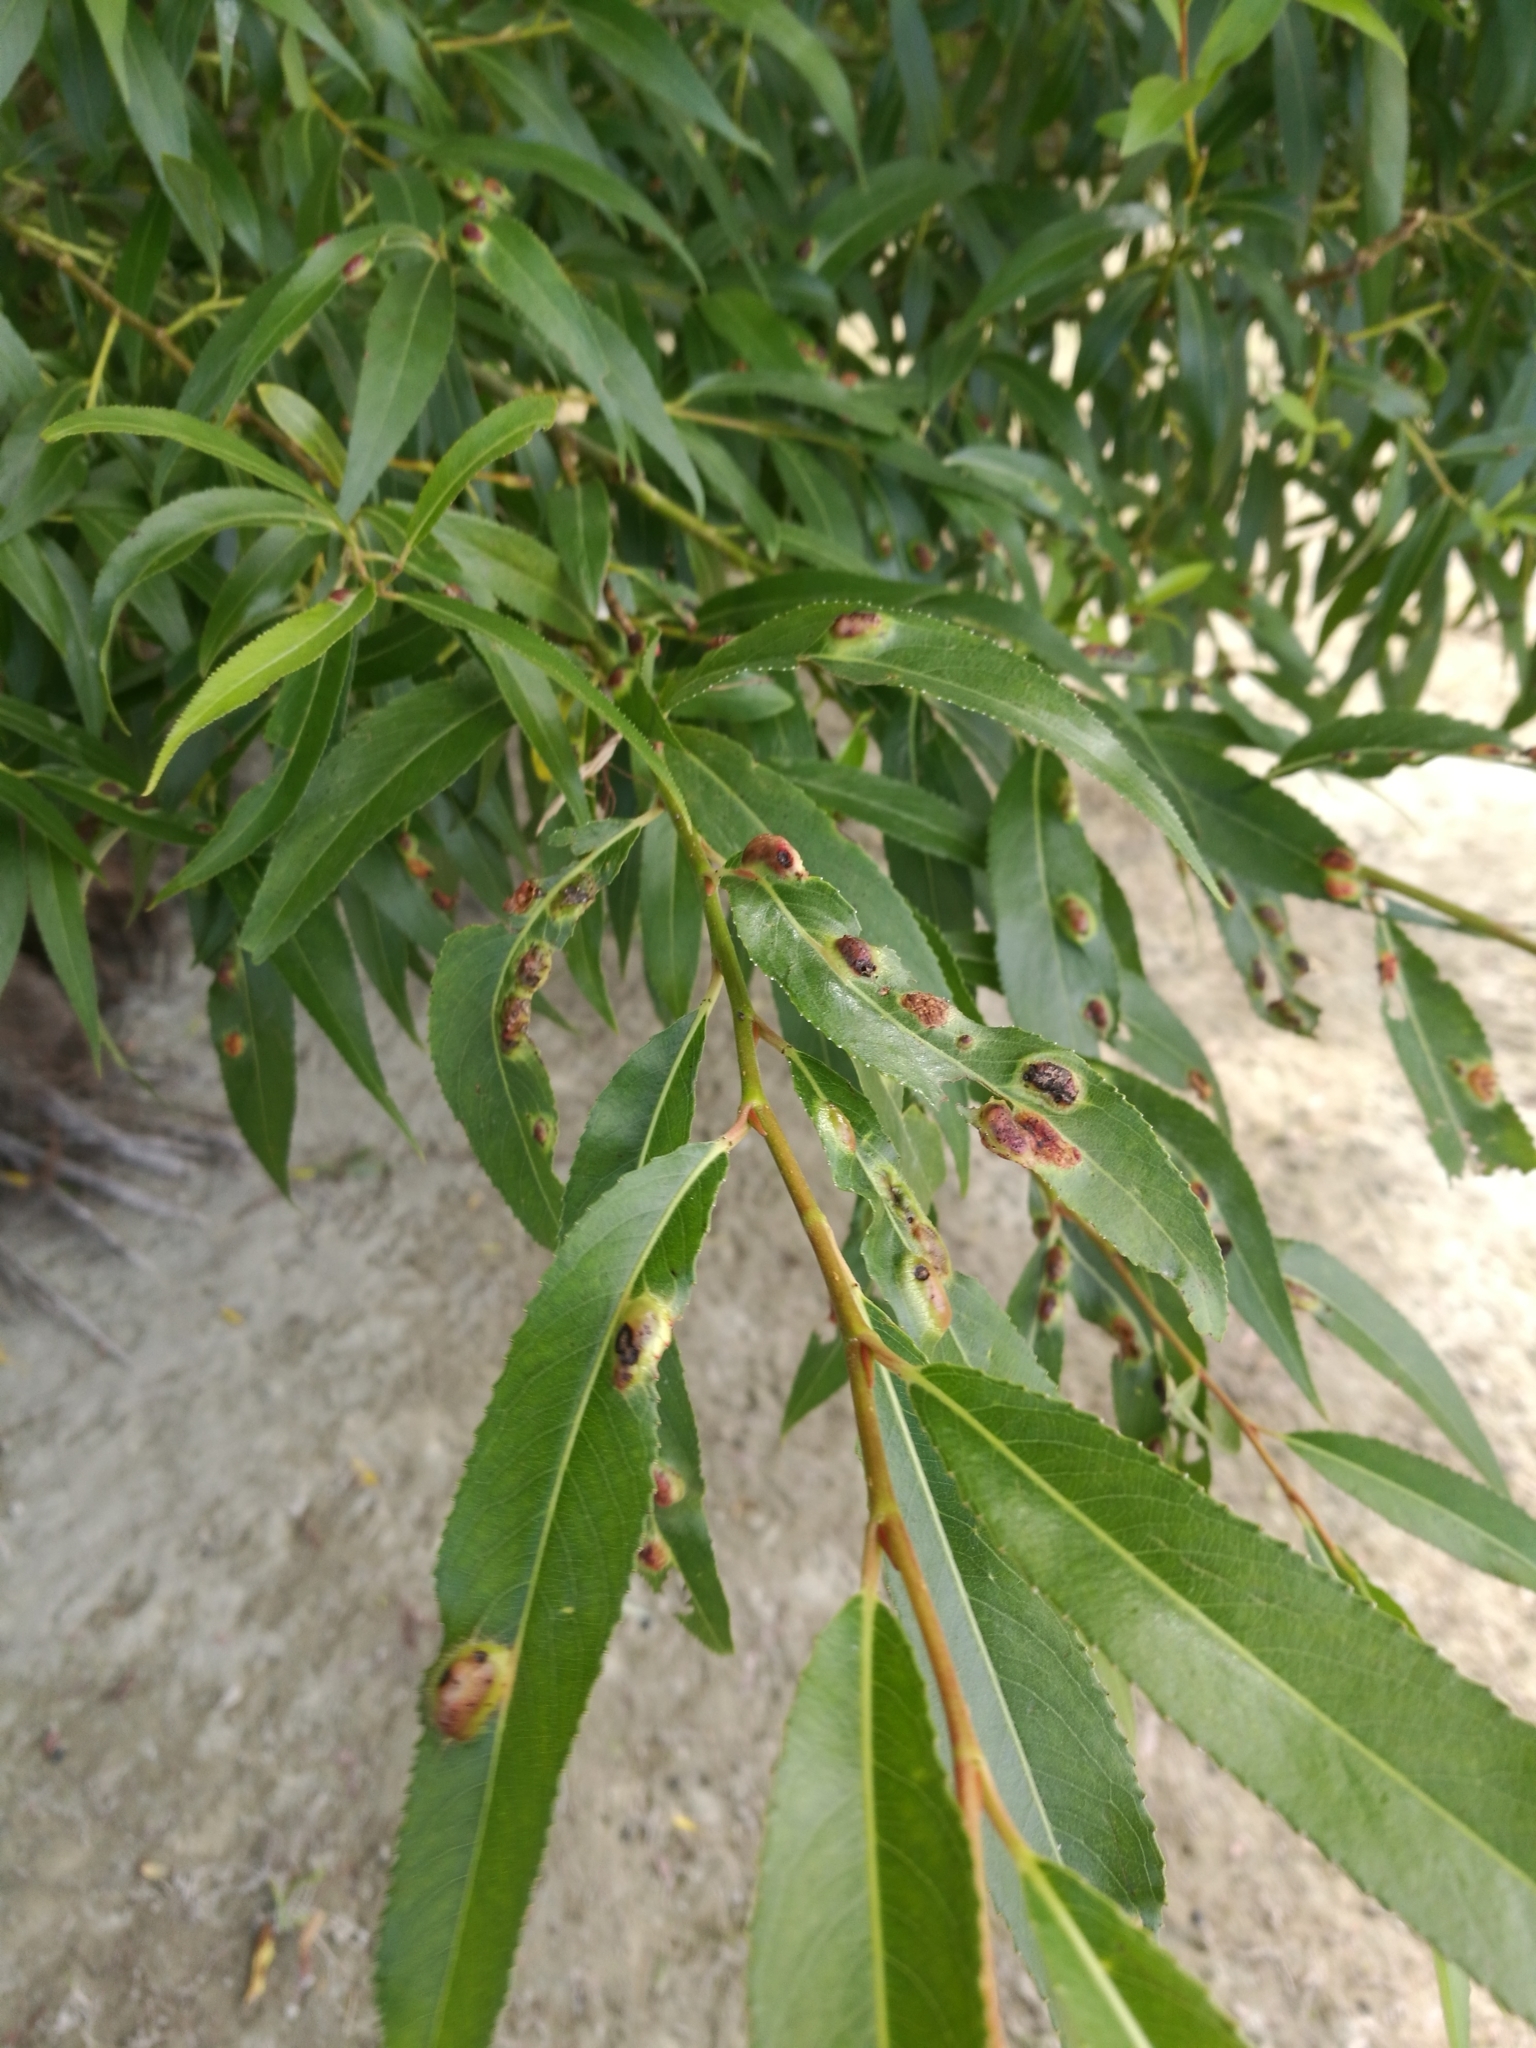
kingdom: Plantae
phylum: Tracheophyta
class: Magnoliopsida
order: Malpighiales
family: Salicaceae
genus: Salix
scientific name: Salix fragilis
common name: Crack willow
